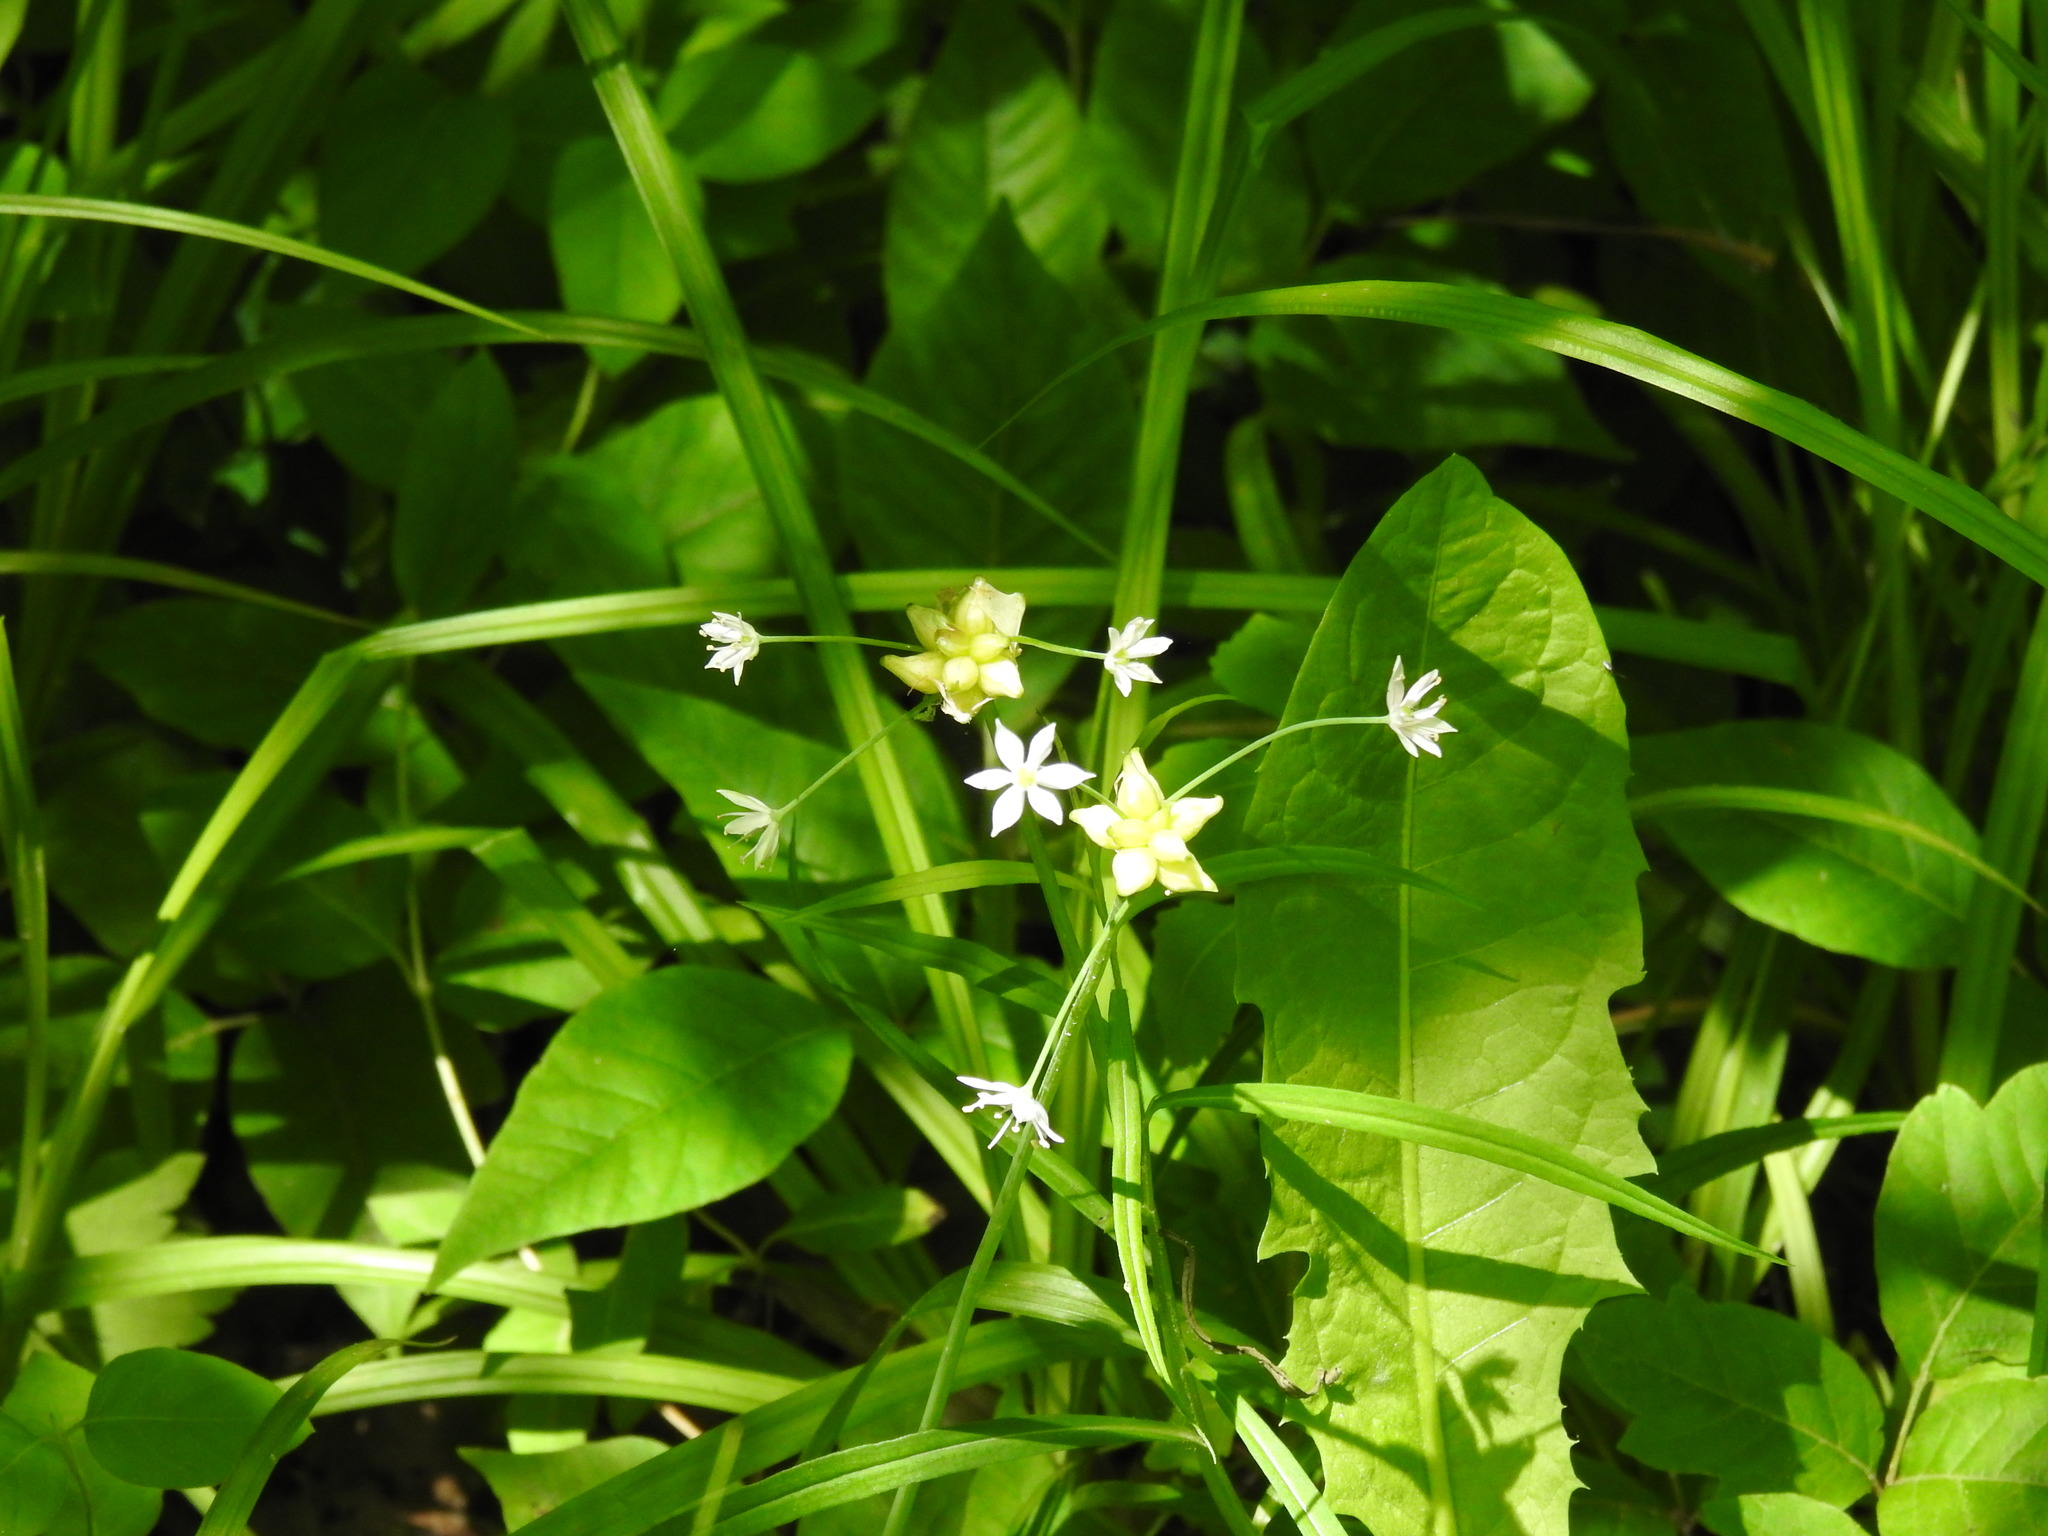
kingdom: Plantae
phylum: Tracheophyta
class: Liliopsida
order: Asparagales
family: Amaryllidaceae
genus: Allium
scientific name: Allium canadense
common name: Meadow garlic
